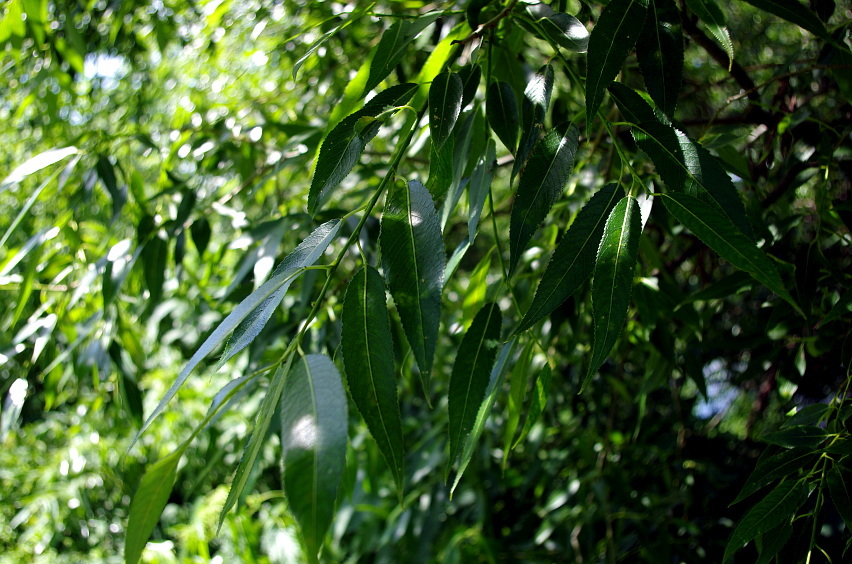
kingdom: Plantae
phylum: Tracheophyta
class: Magnoliopsida
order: Malpighiales
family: Salicaceae
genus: Salix
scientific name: Salix alba
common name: White willow
